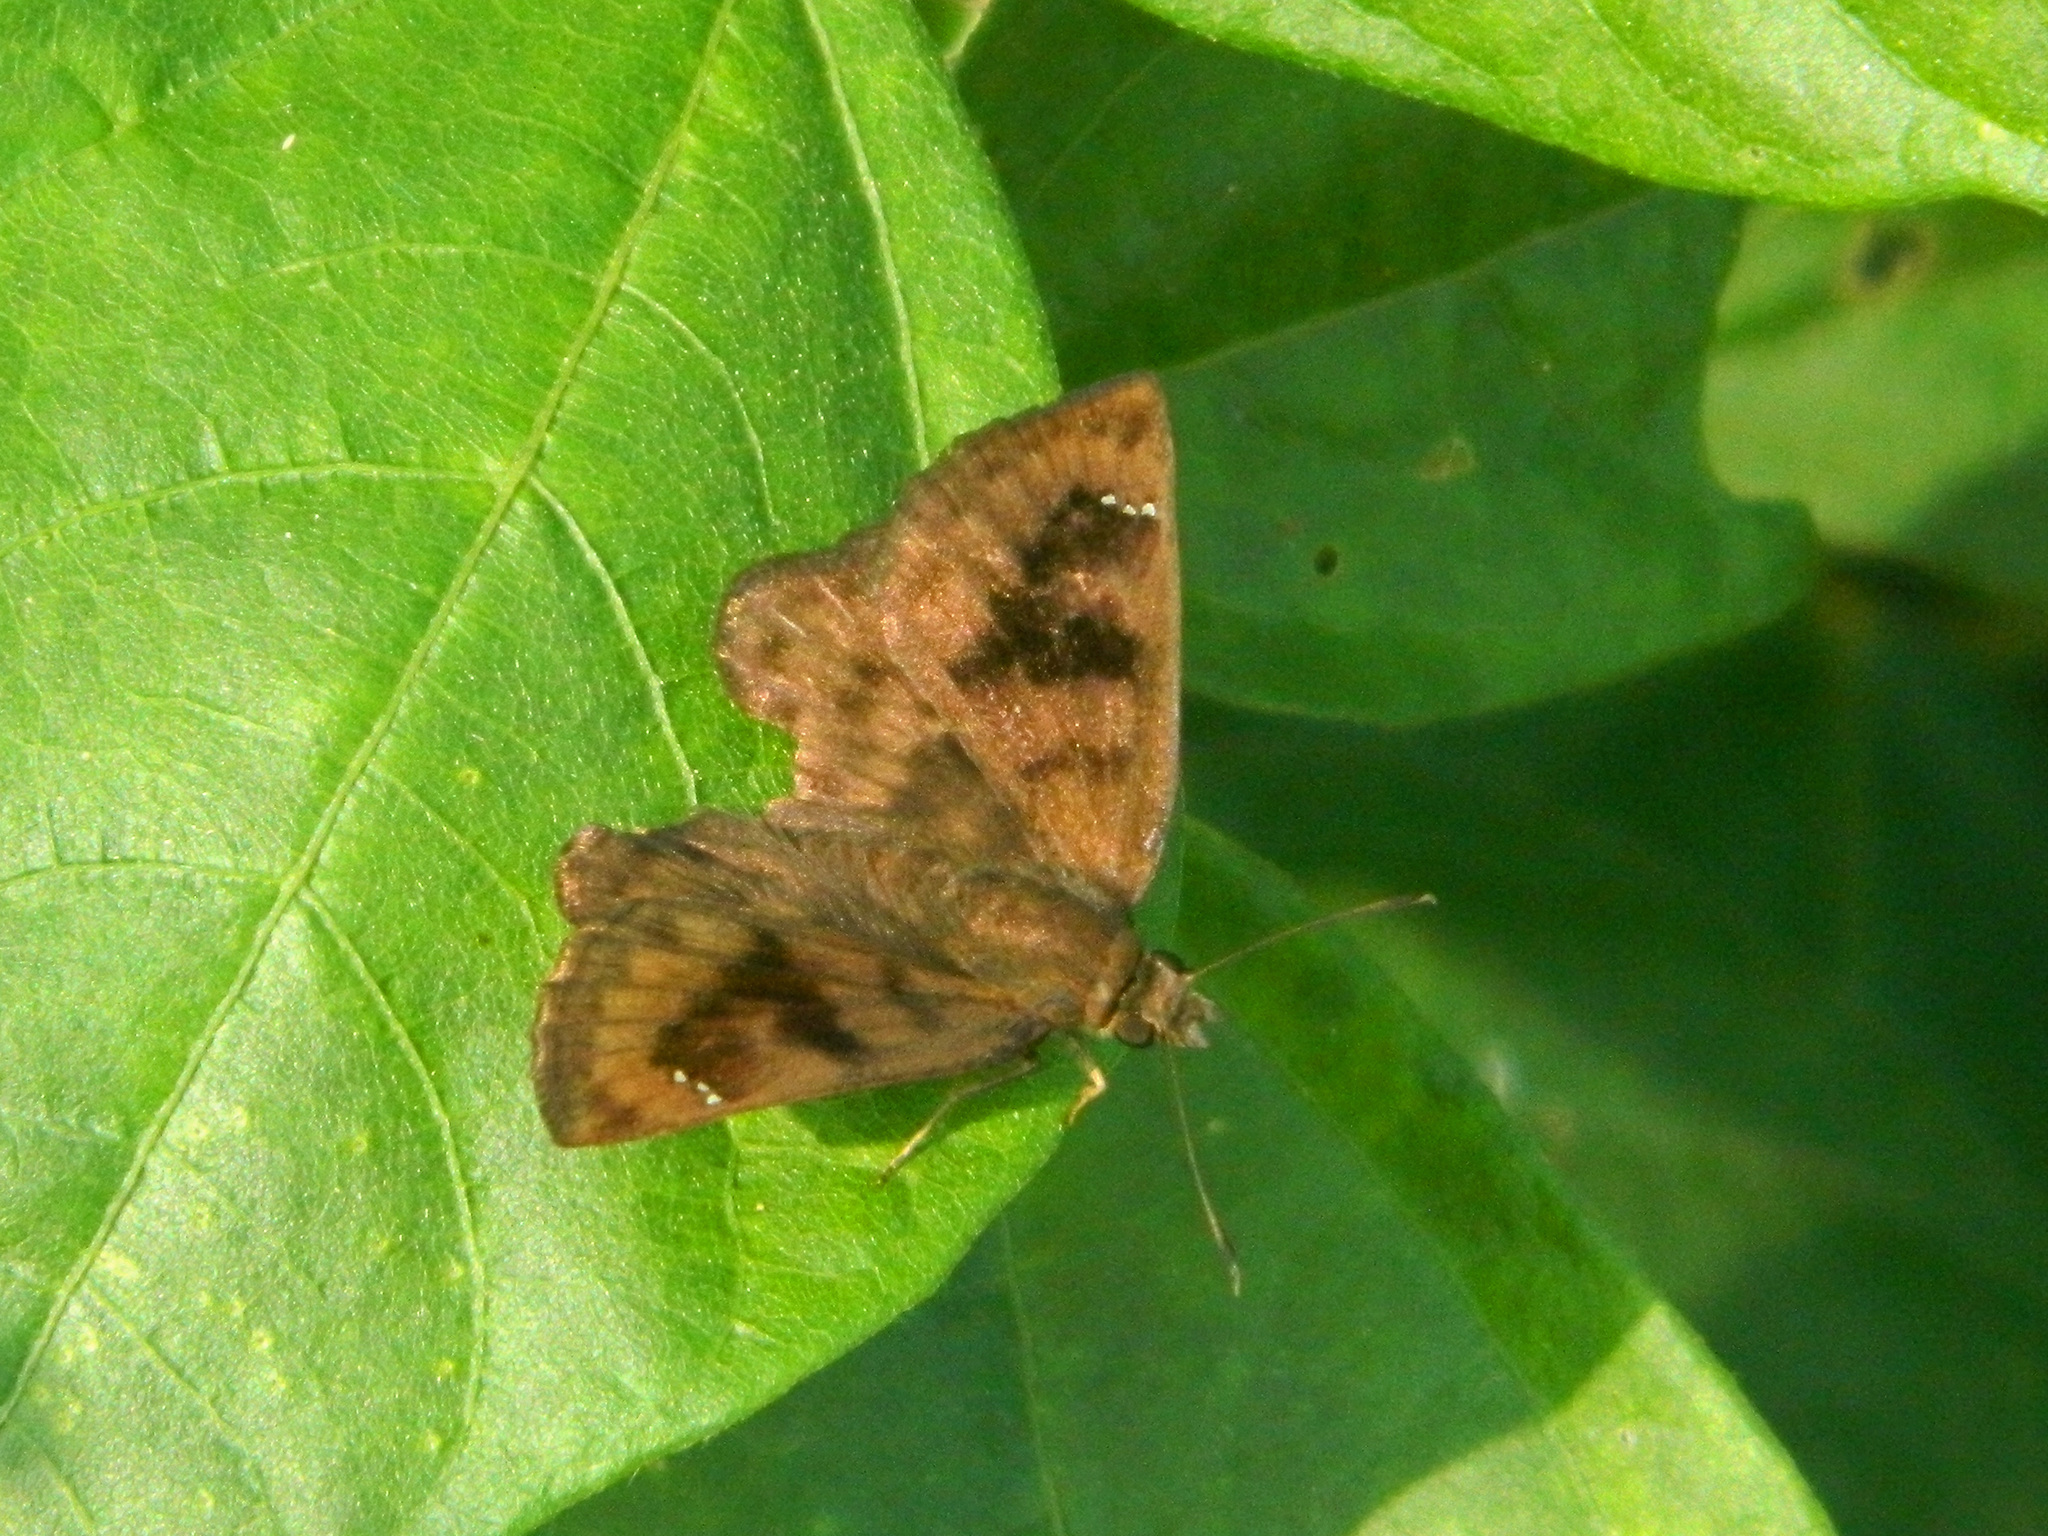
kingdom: Animalia
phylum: Arthropoda
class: Insecta
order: Lepidoptera
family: Hesperiidae
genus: Nisoniades
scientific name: Nisoniades
